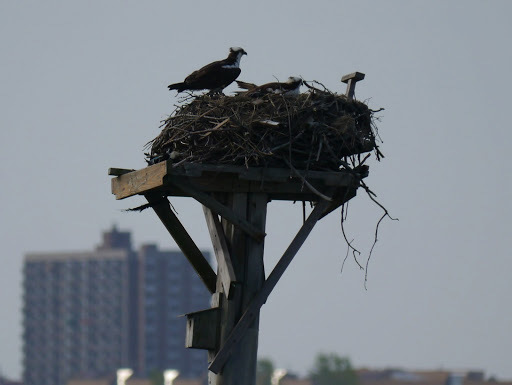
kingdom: Animalia
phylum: Chordata
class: Aves
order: Accipitriformes
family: Pandionidae
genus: Pandion
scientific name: Pandion haliaetus
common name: Osprey
